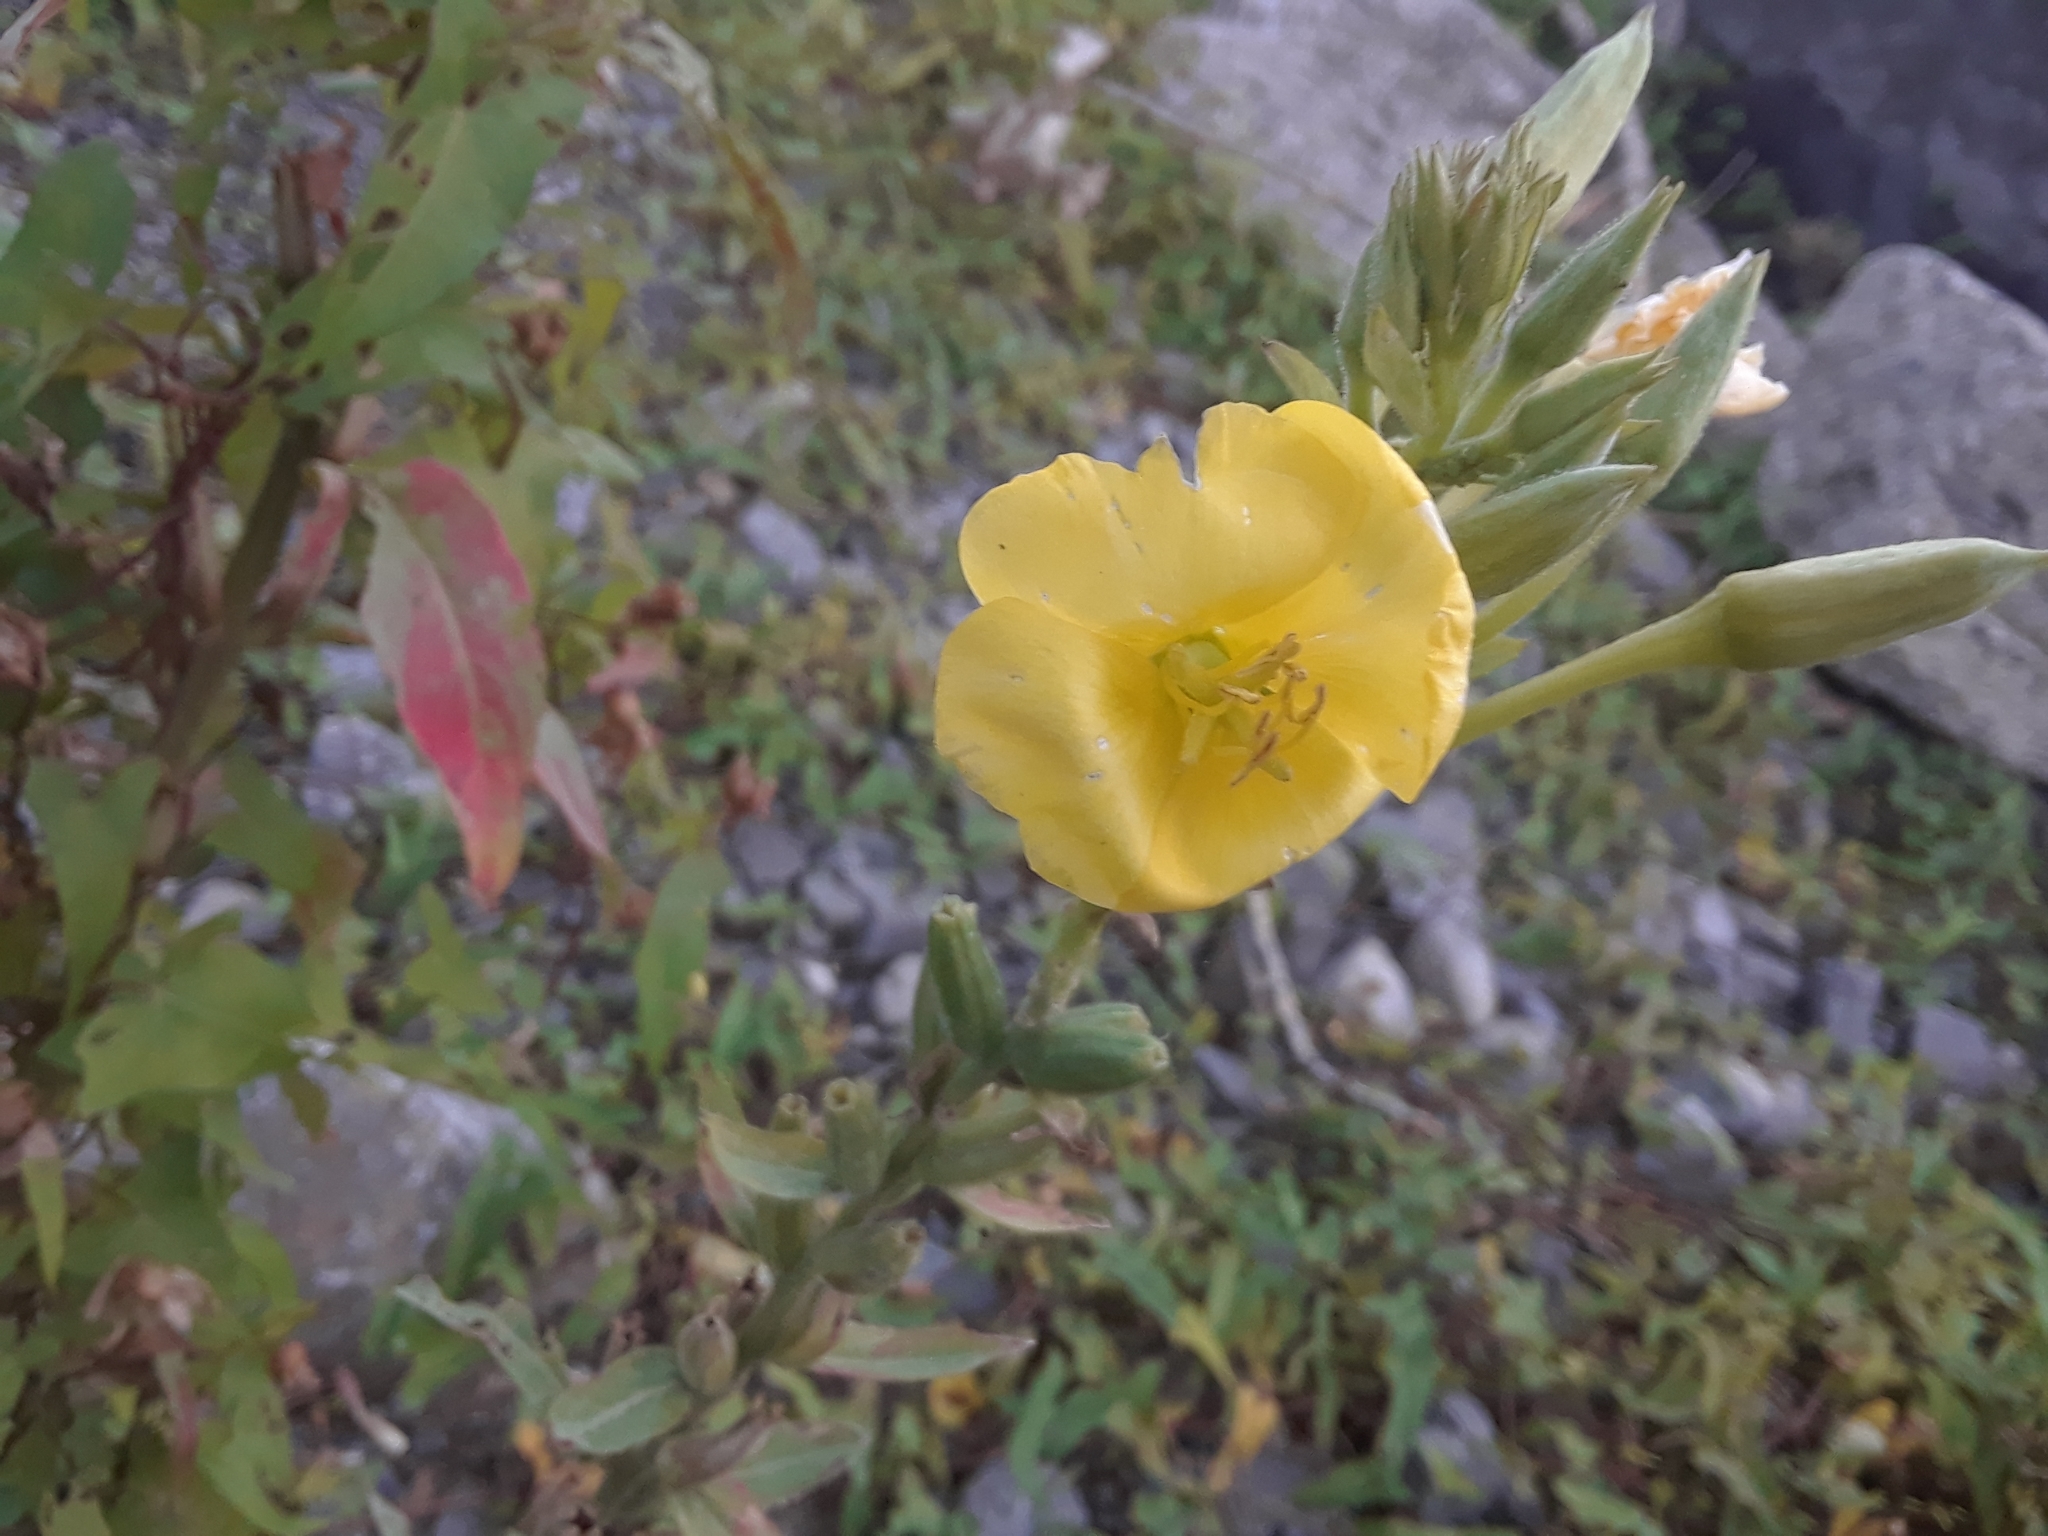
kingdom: Plantae
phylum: Tracheophyta
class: Magnoliopsida
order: Myrtales
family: Onagraceae
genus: Oenothera
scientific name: Oenothera biennis
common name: Common evening-primrose
